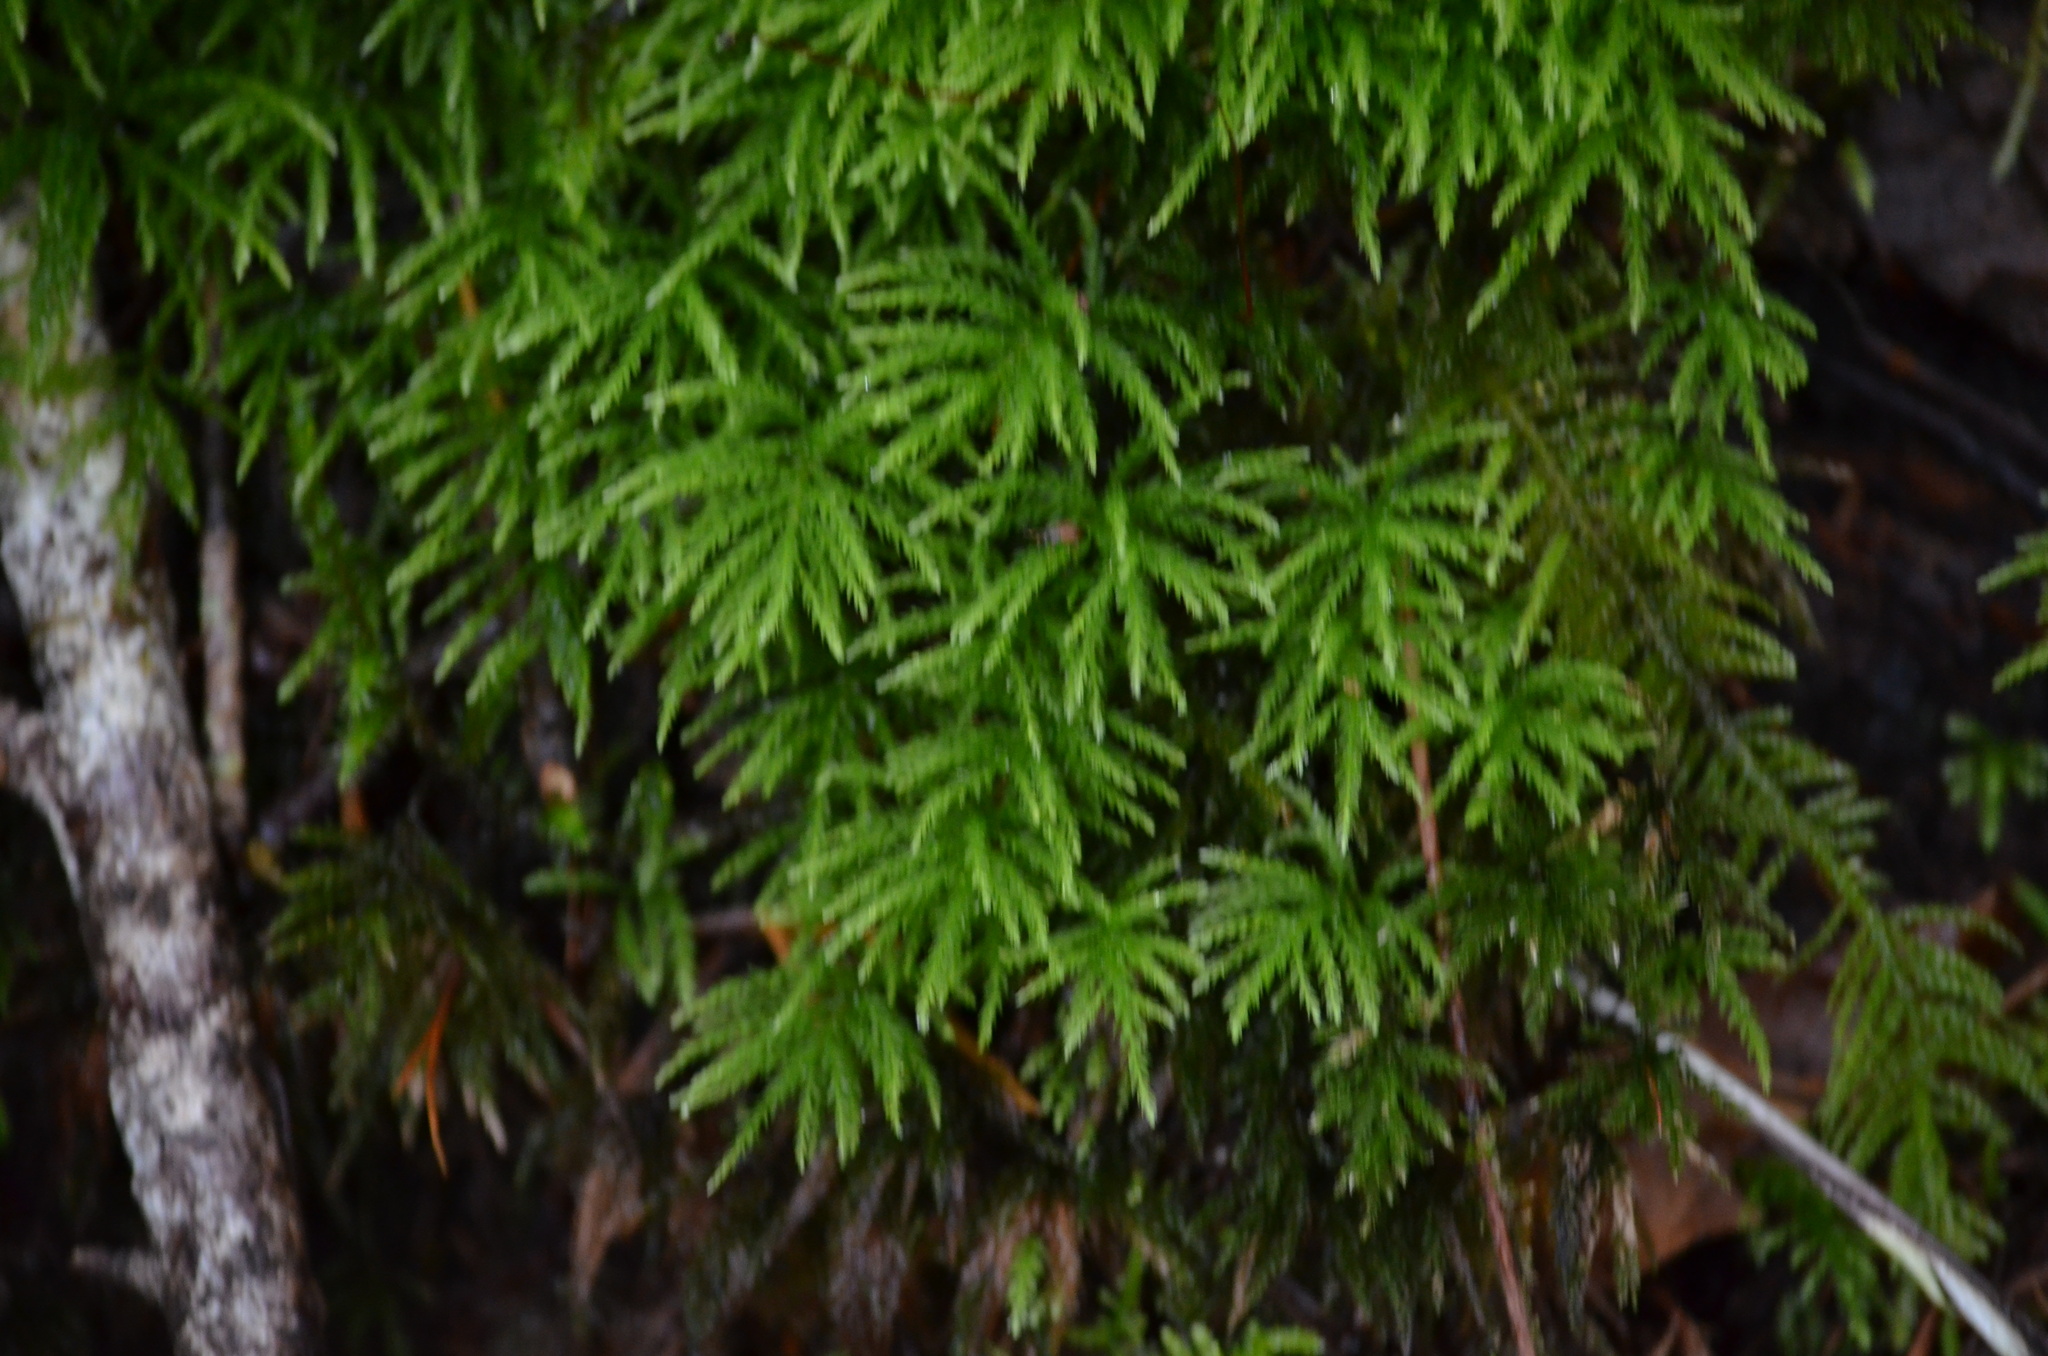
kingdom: Plantae
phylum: Bryophyta
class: Bryopsida
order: Bryales
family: Mniaceae
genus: Leucolepis
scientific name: Leucolepis acanthoneura
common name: Leucolepis umbrella moss
